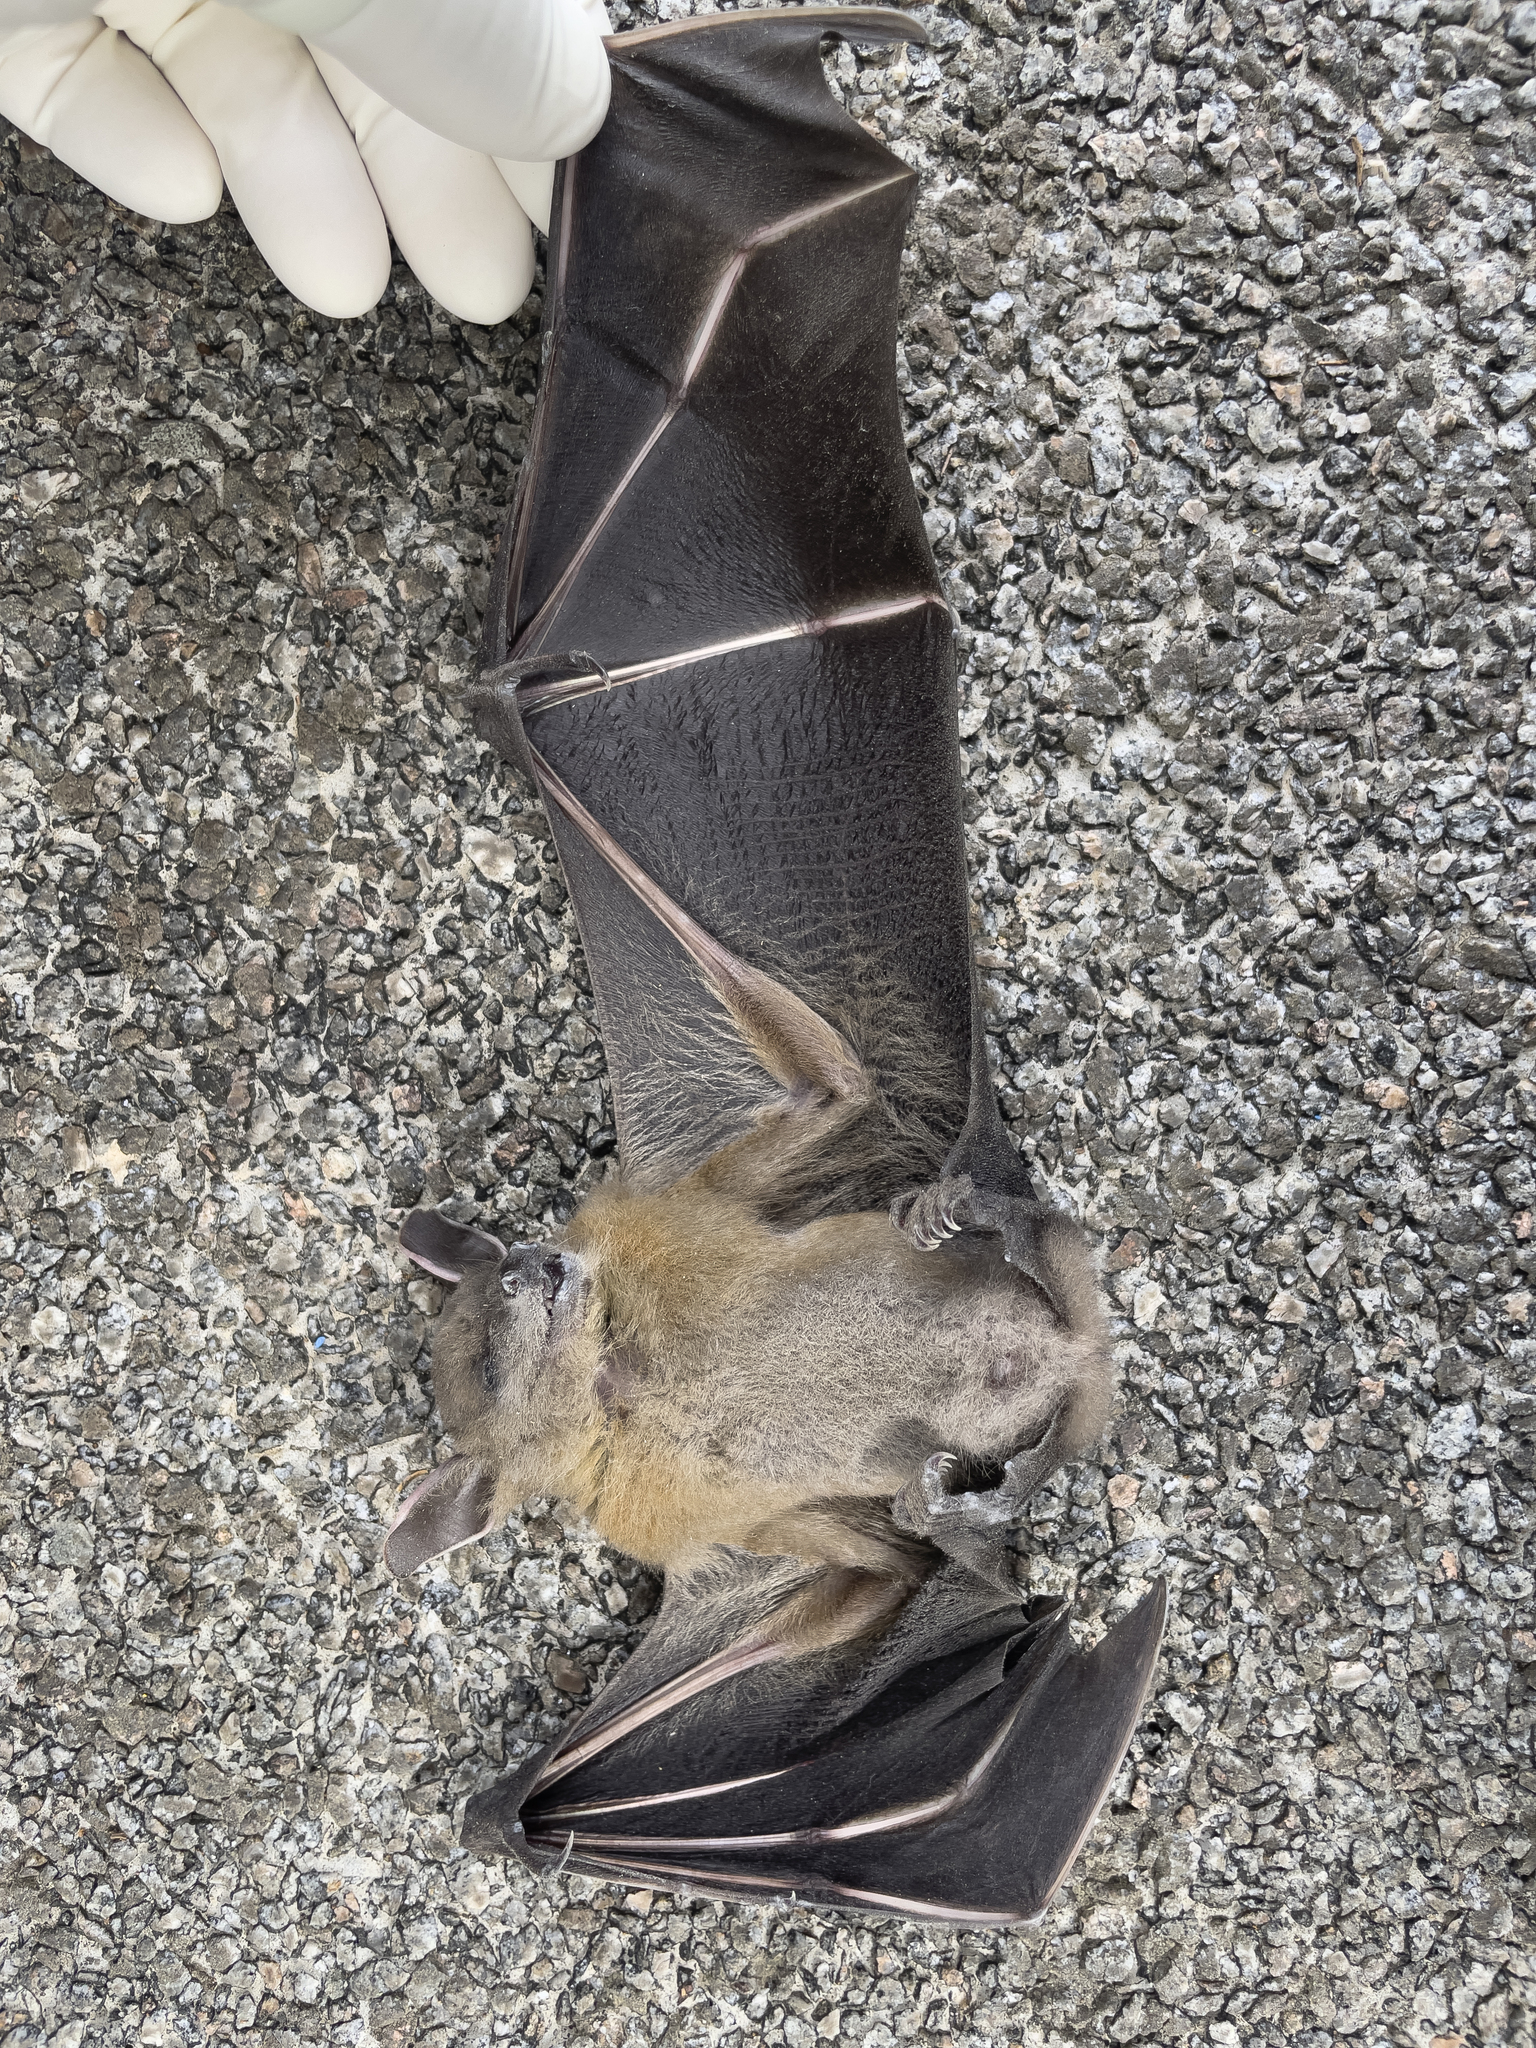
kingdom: Animalia
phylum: Chordata
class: Mammalia
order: Chiroptera
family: Pteropodidae
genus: Cynopterus
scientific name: Cynopterus sphinx
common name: Greater short-nosed fruit bat
